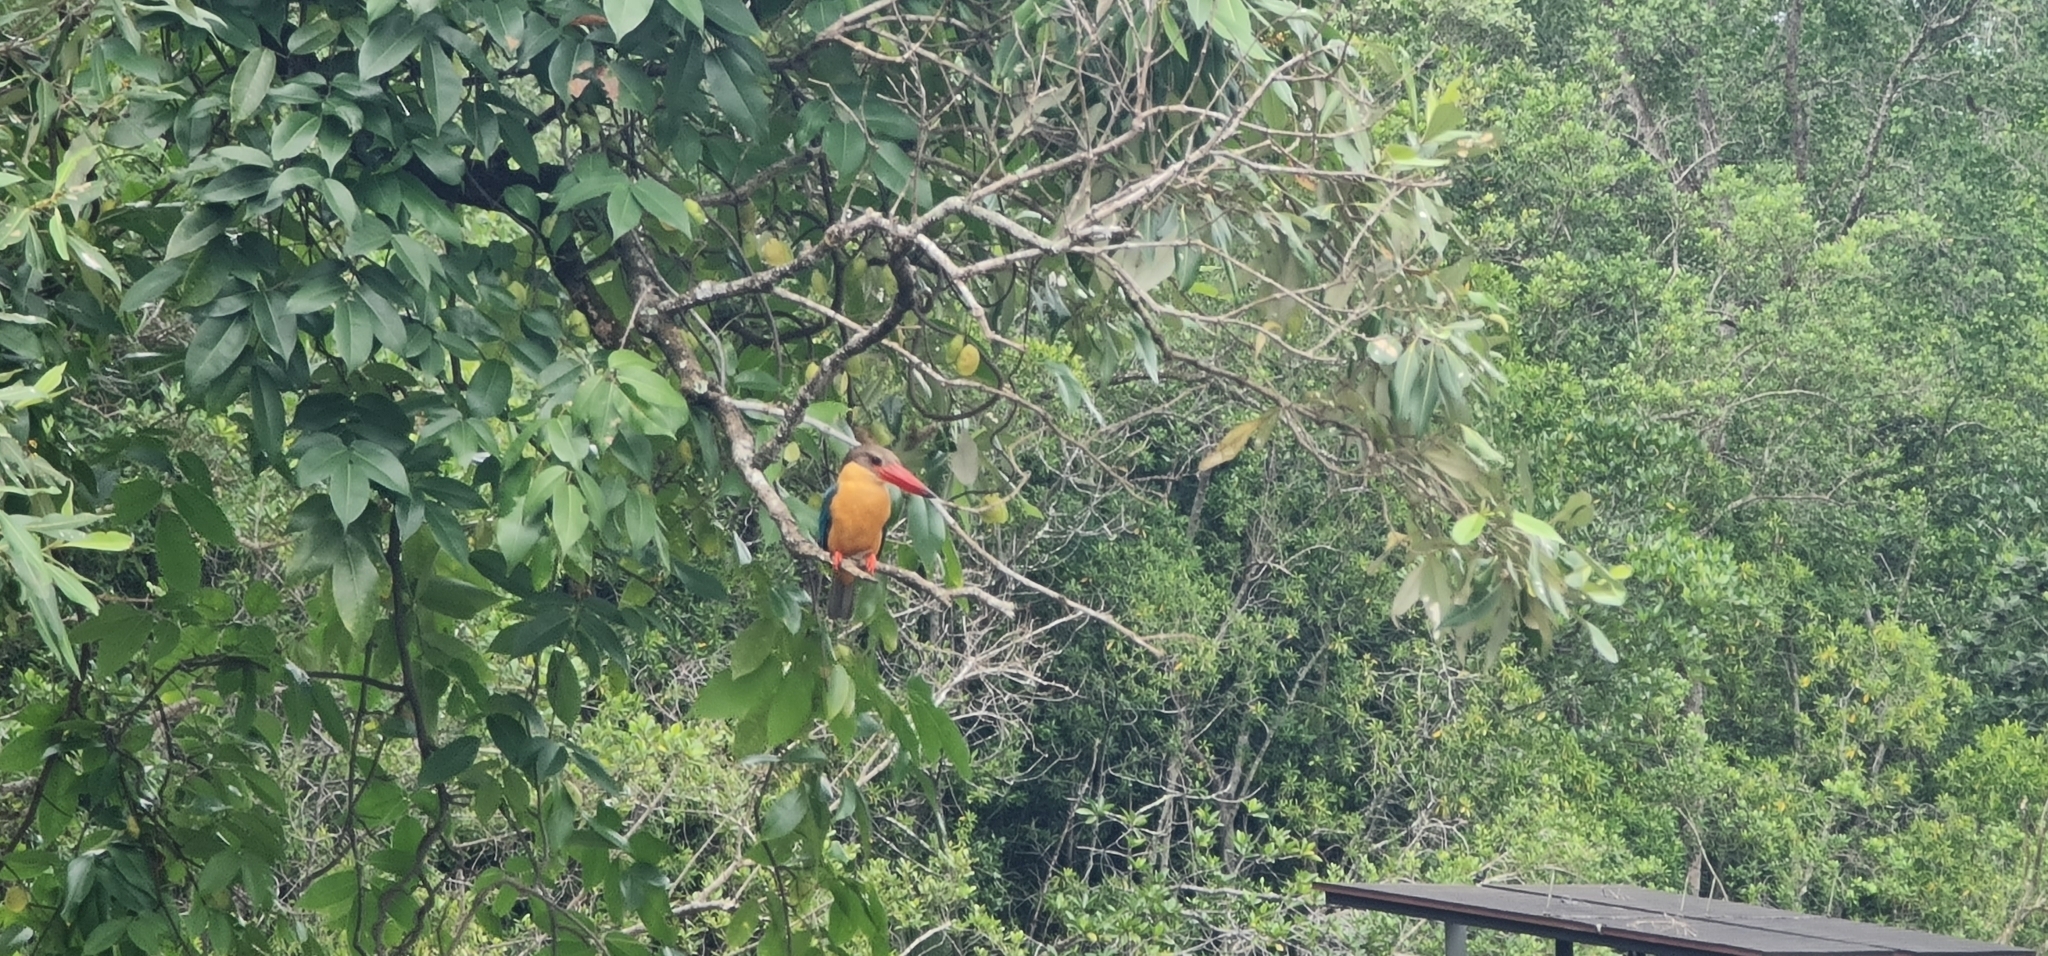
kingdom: Animalia
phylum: Chordata
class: Aves
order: Coraciiformes
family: Alcedinidae
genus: Pelargopsis
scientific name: Pelargopsis capensis
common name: Stork-billed kingfisher
